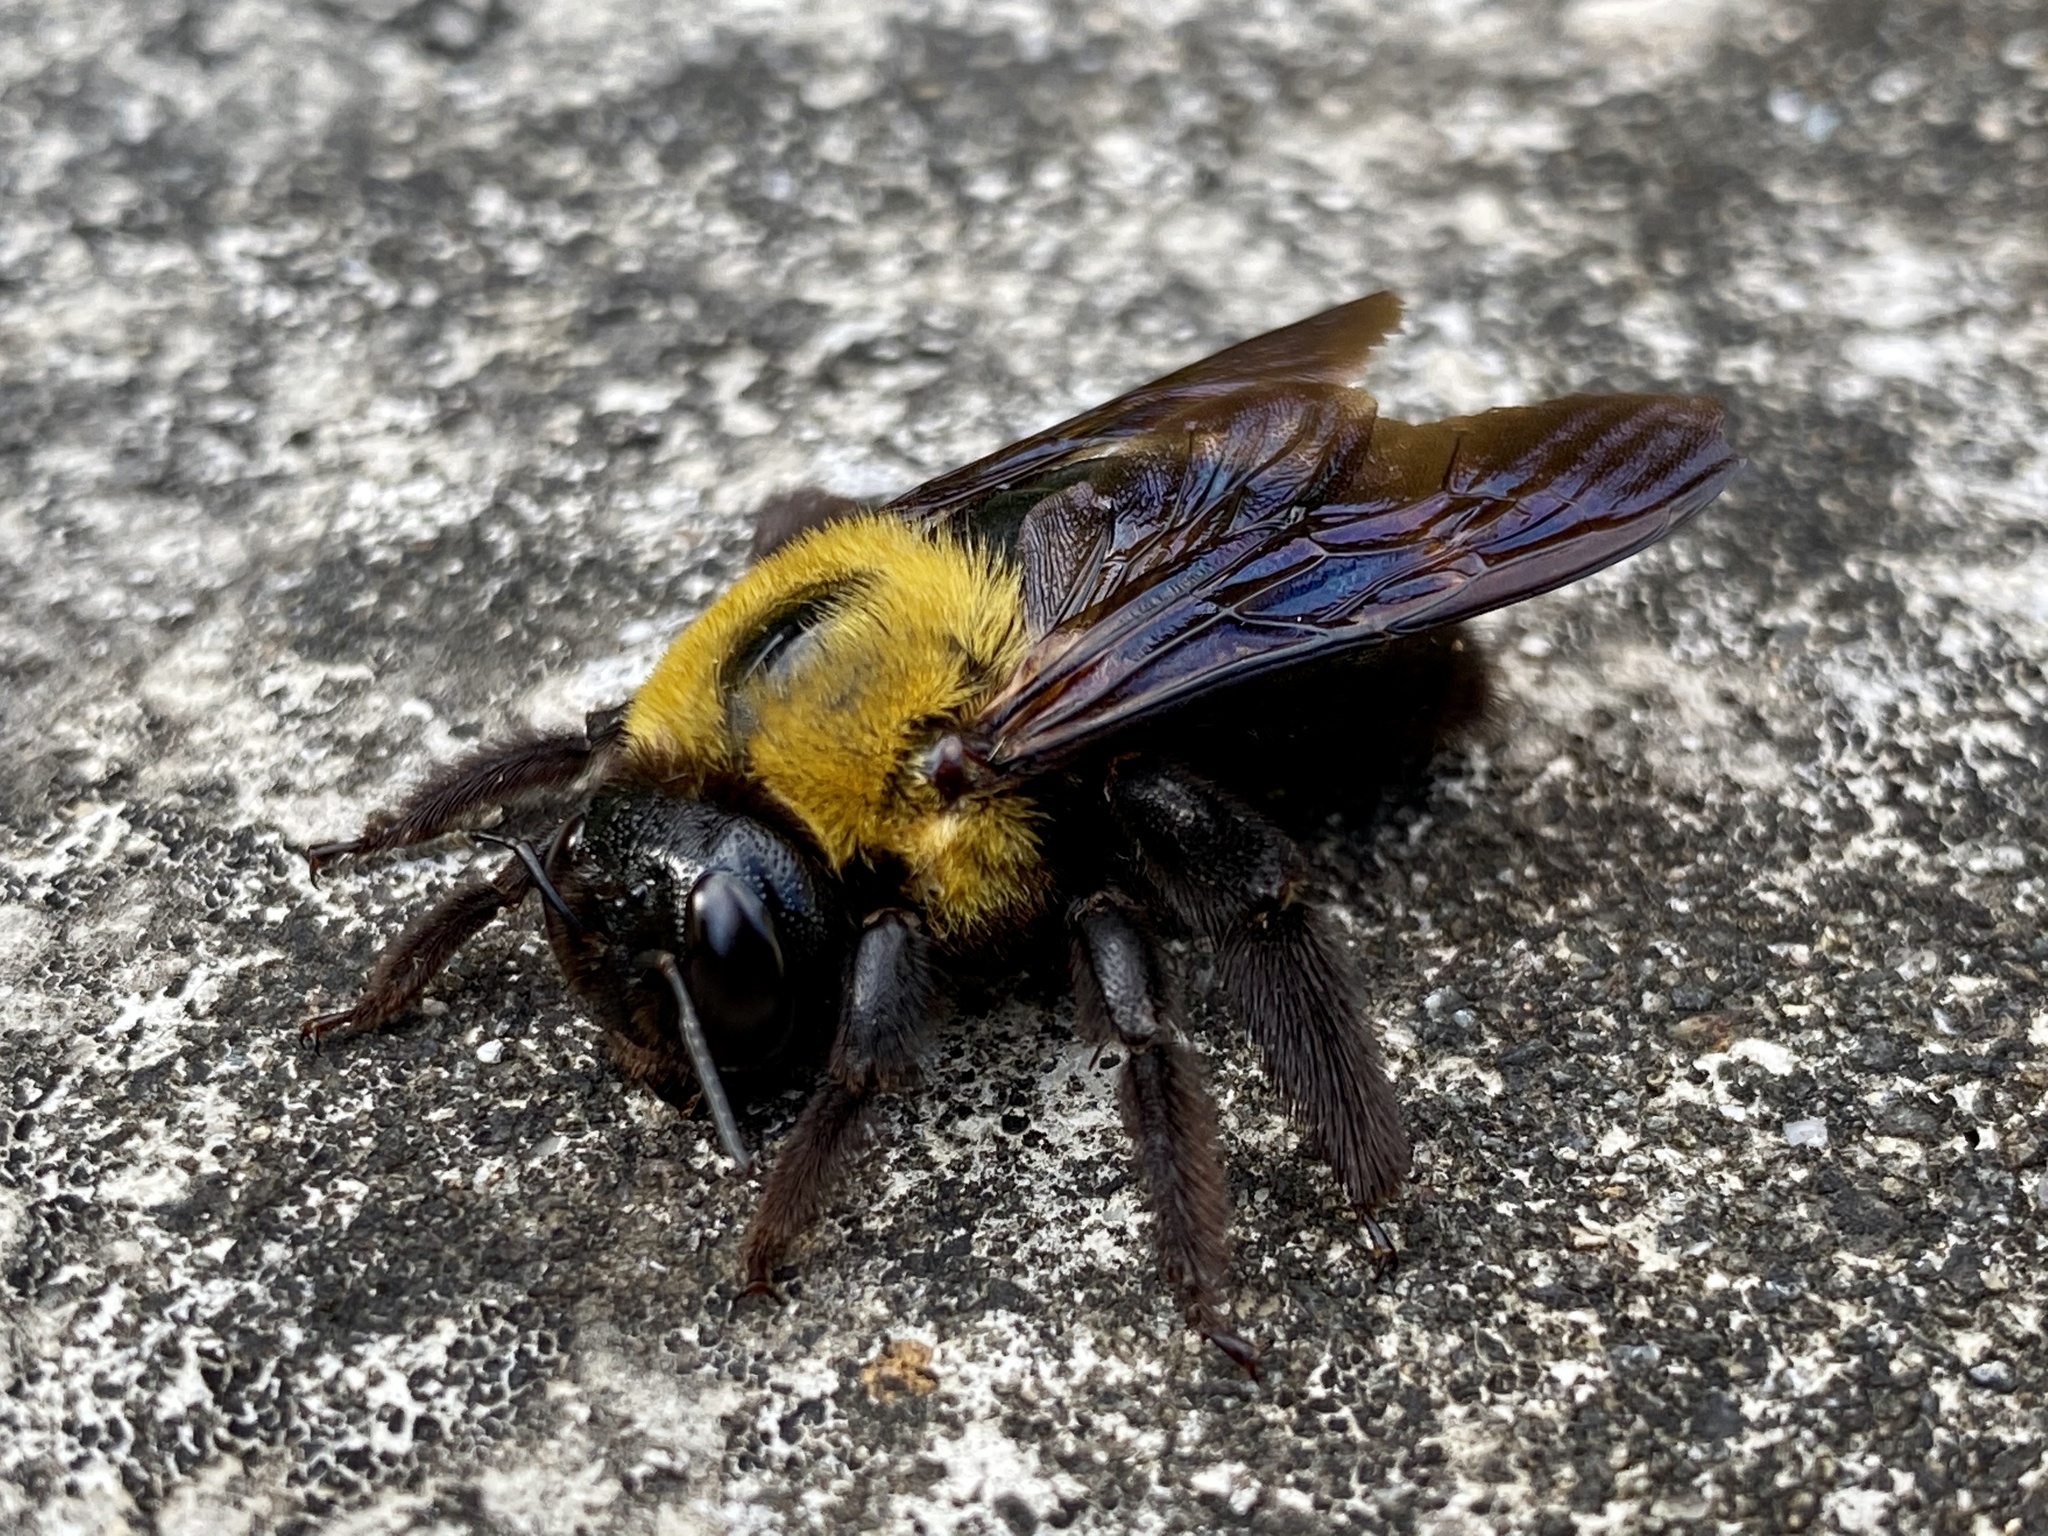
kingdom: Animalia
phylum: Arthropoda
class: Insecta
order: Hymenoptera
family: Apidae
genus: Xylocopa
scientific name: Xylocopa appendiculata
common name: Japanese carpenter bee
